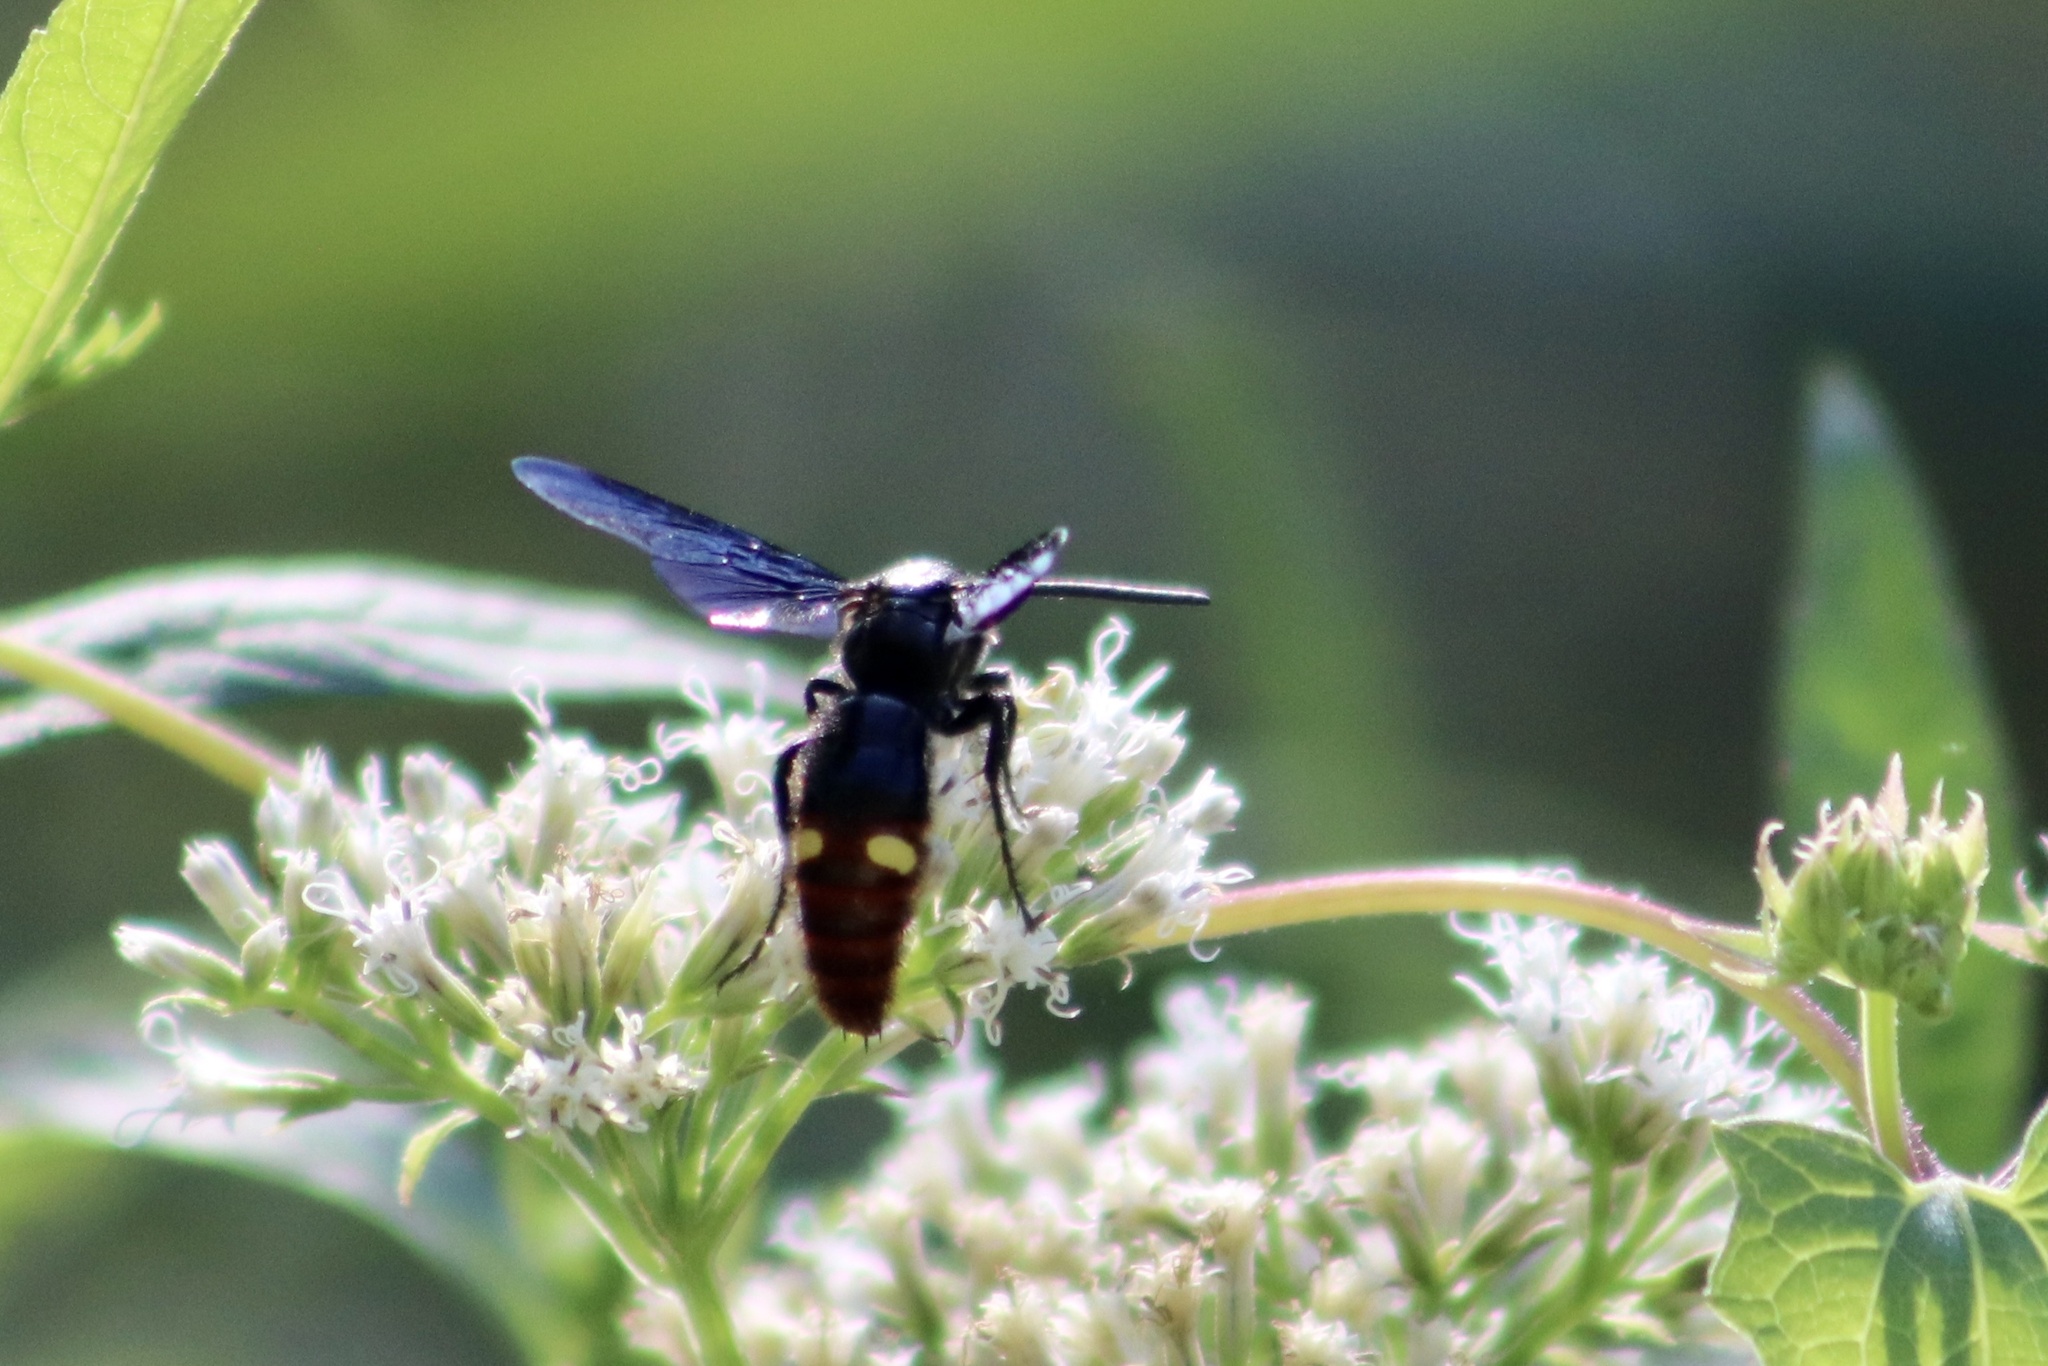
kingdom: Animalia
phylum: Arthropoda
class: Insecta
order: Hymenoptera
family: Scoliidae
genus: Scolia
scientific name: Scolia dubia
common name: Blue-winged scoliid wasp
